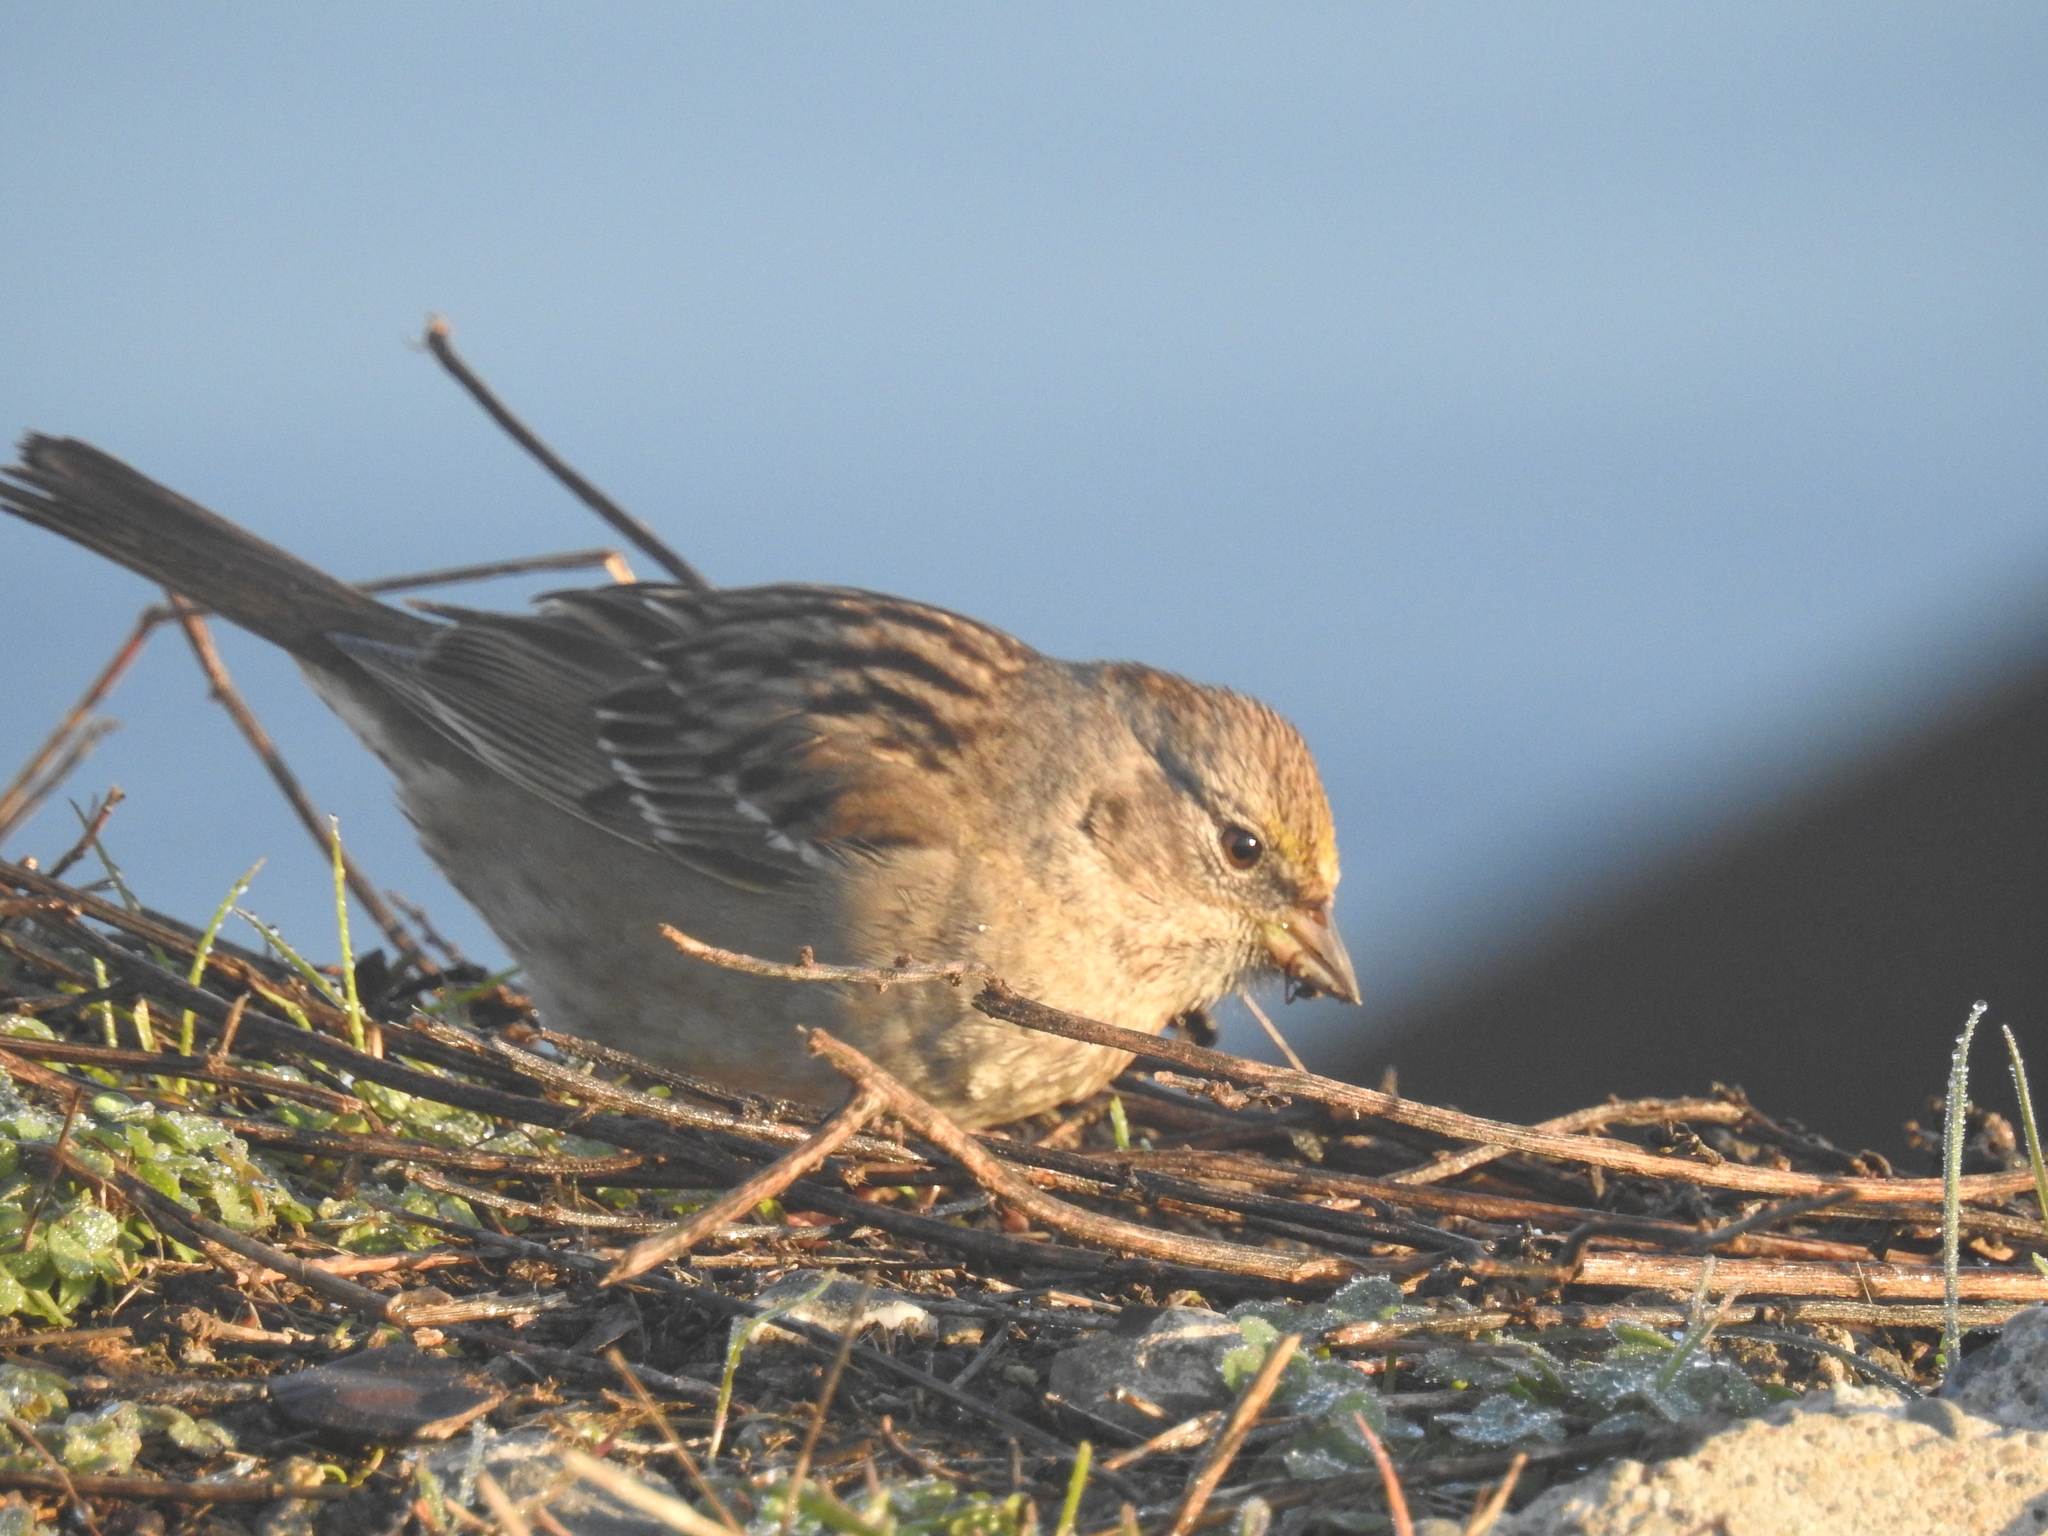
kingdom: Animalia
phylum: Chordata
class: Aves
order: Passeriformes
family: Passerellidae
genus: Zonotrichia
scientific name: Zonotrichia atricapilla
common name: Golden-crowned sparrow
